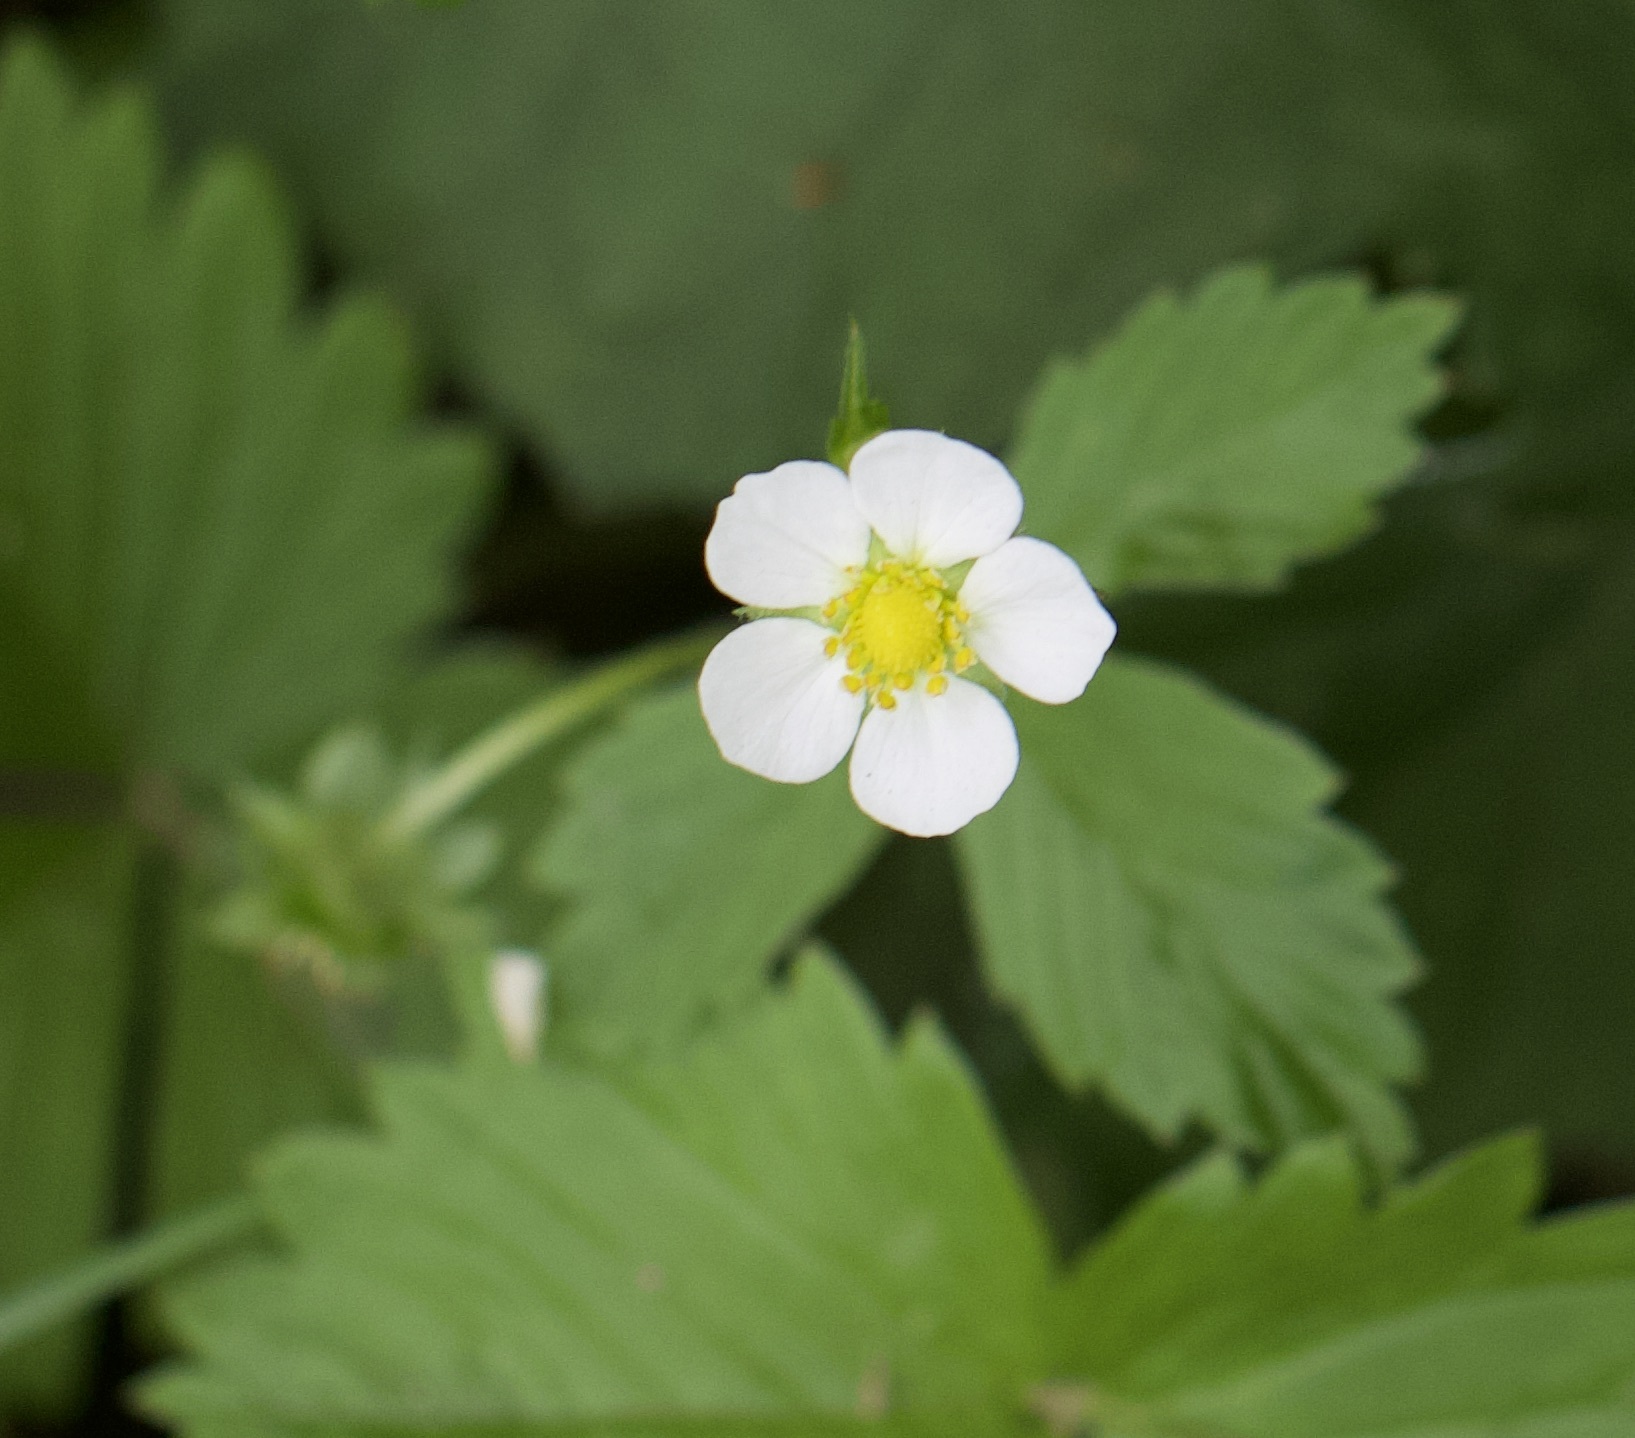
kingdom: Plantae
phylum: Tracheophyta
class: Magnoliopsida
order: Rosales
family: Rosaceae
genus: Fragaria
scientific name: Fragaria vesca
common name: Wild strawberry
